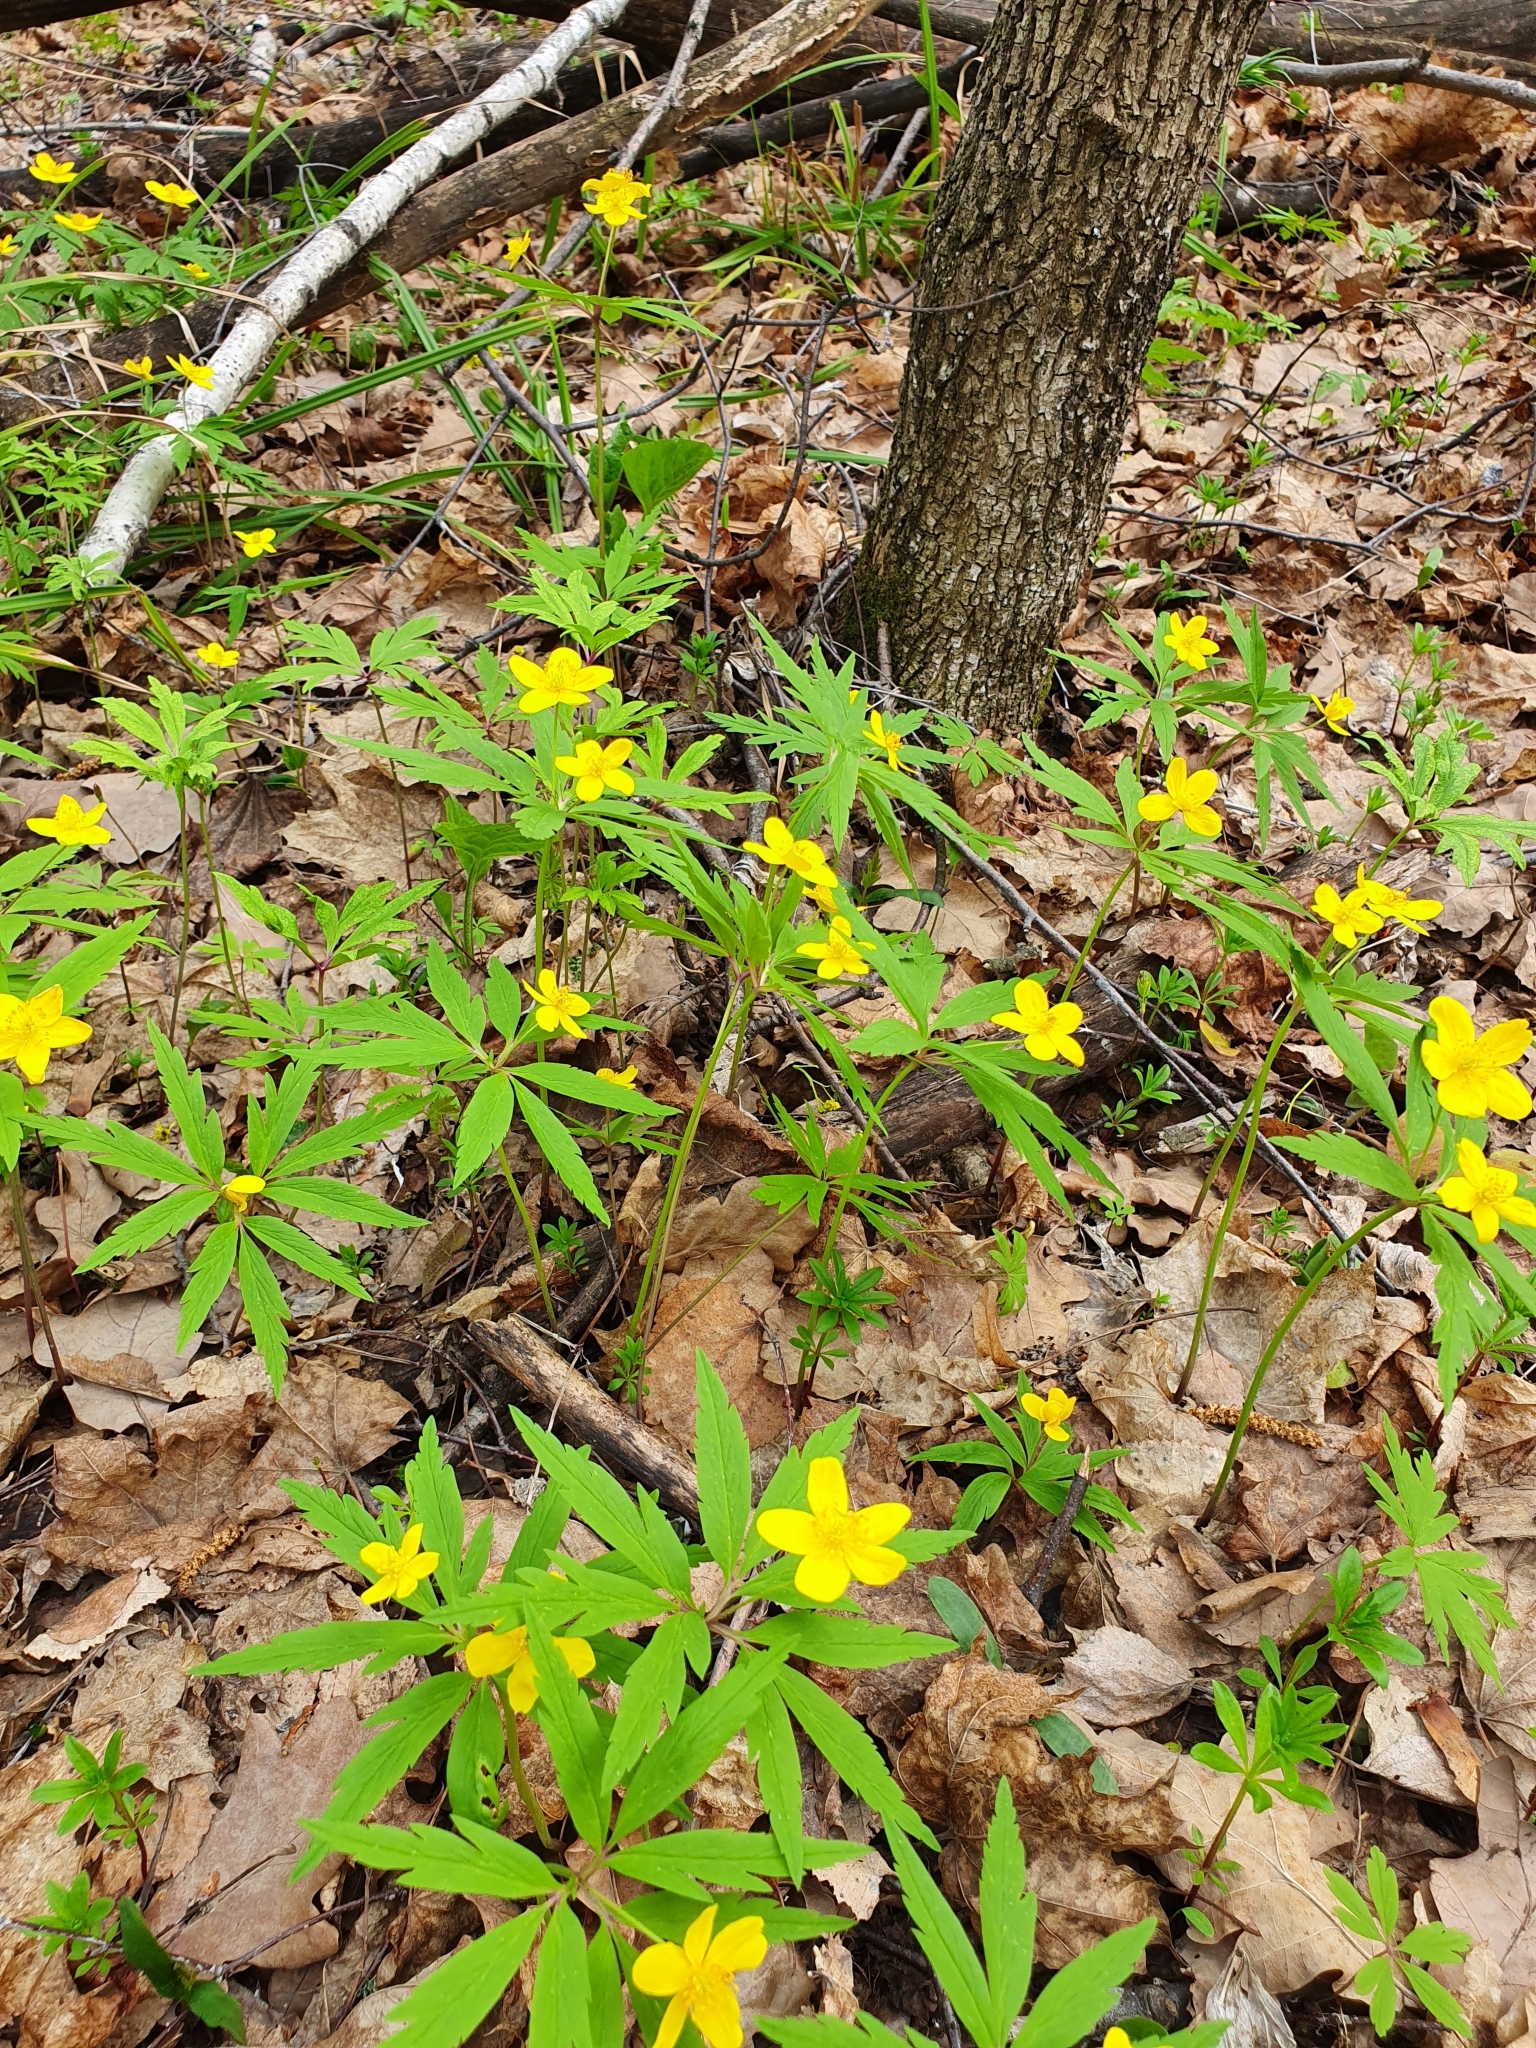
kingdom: Plantae
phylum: Tracheophyta
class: Magnoliopsida
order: Ranunculales
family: Ranunculaceae
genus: Anemone
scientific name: Anemone ranunculoides
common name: Yellow anemone
